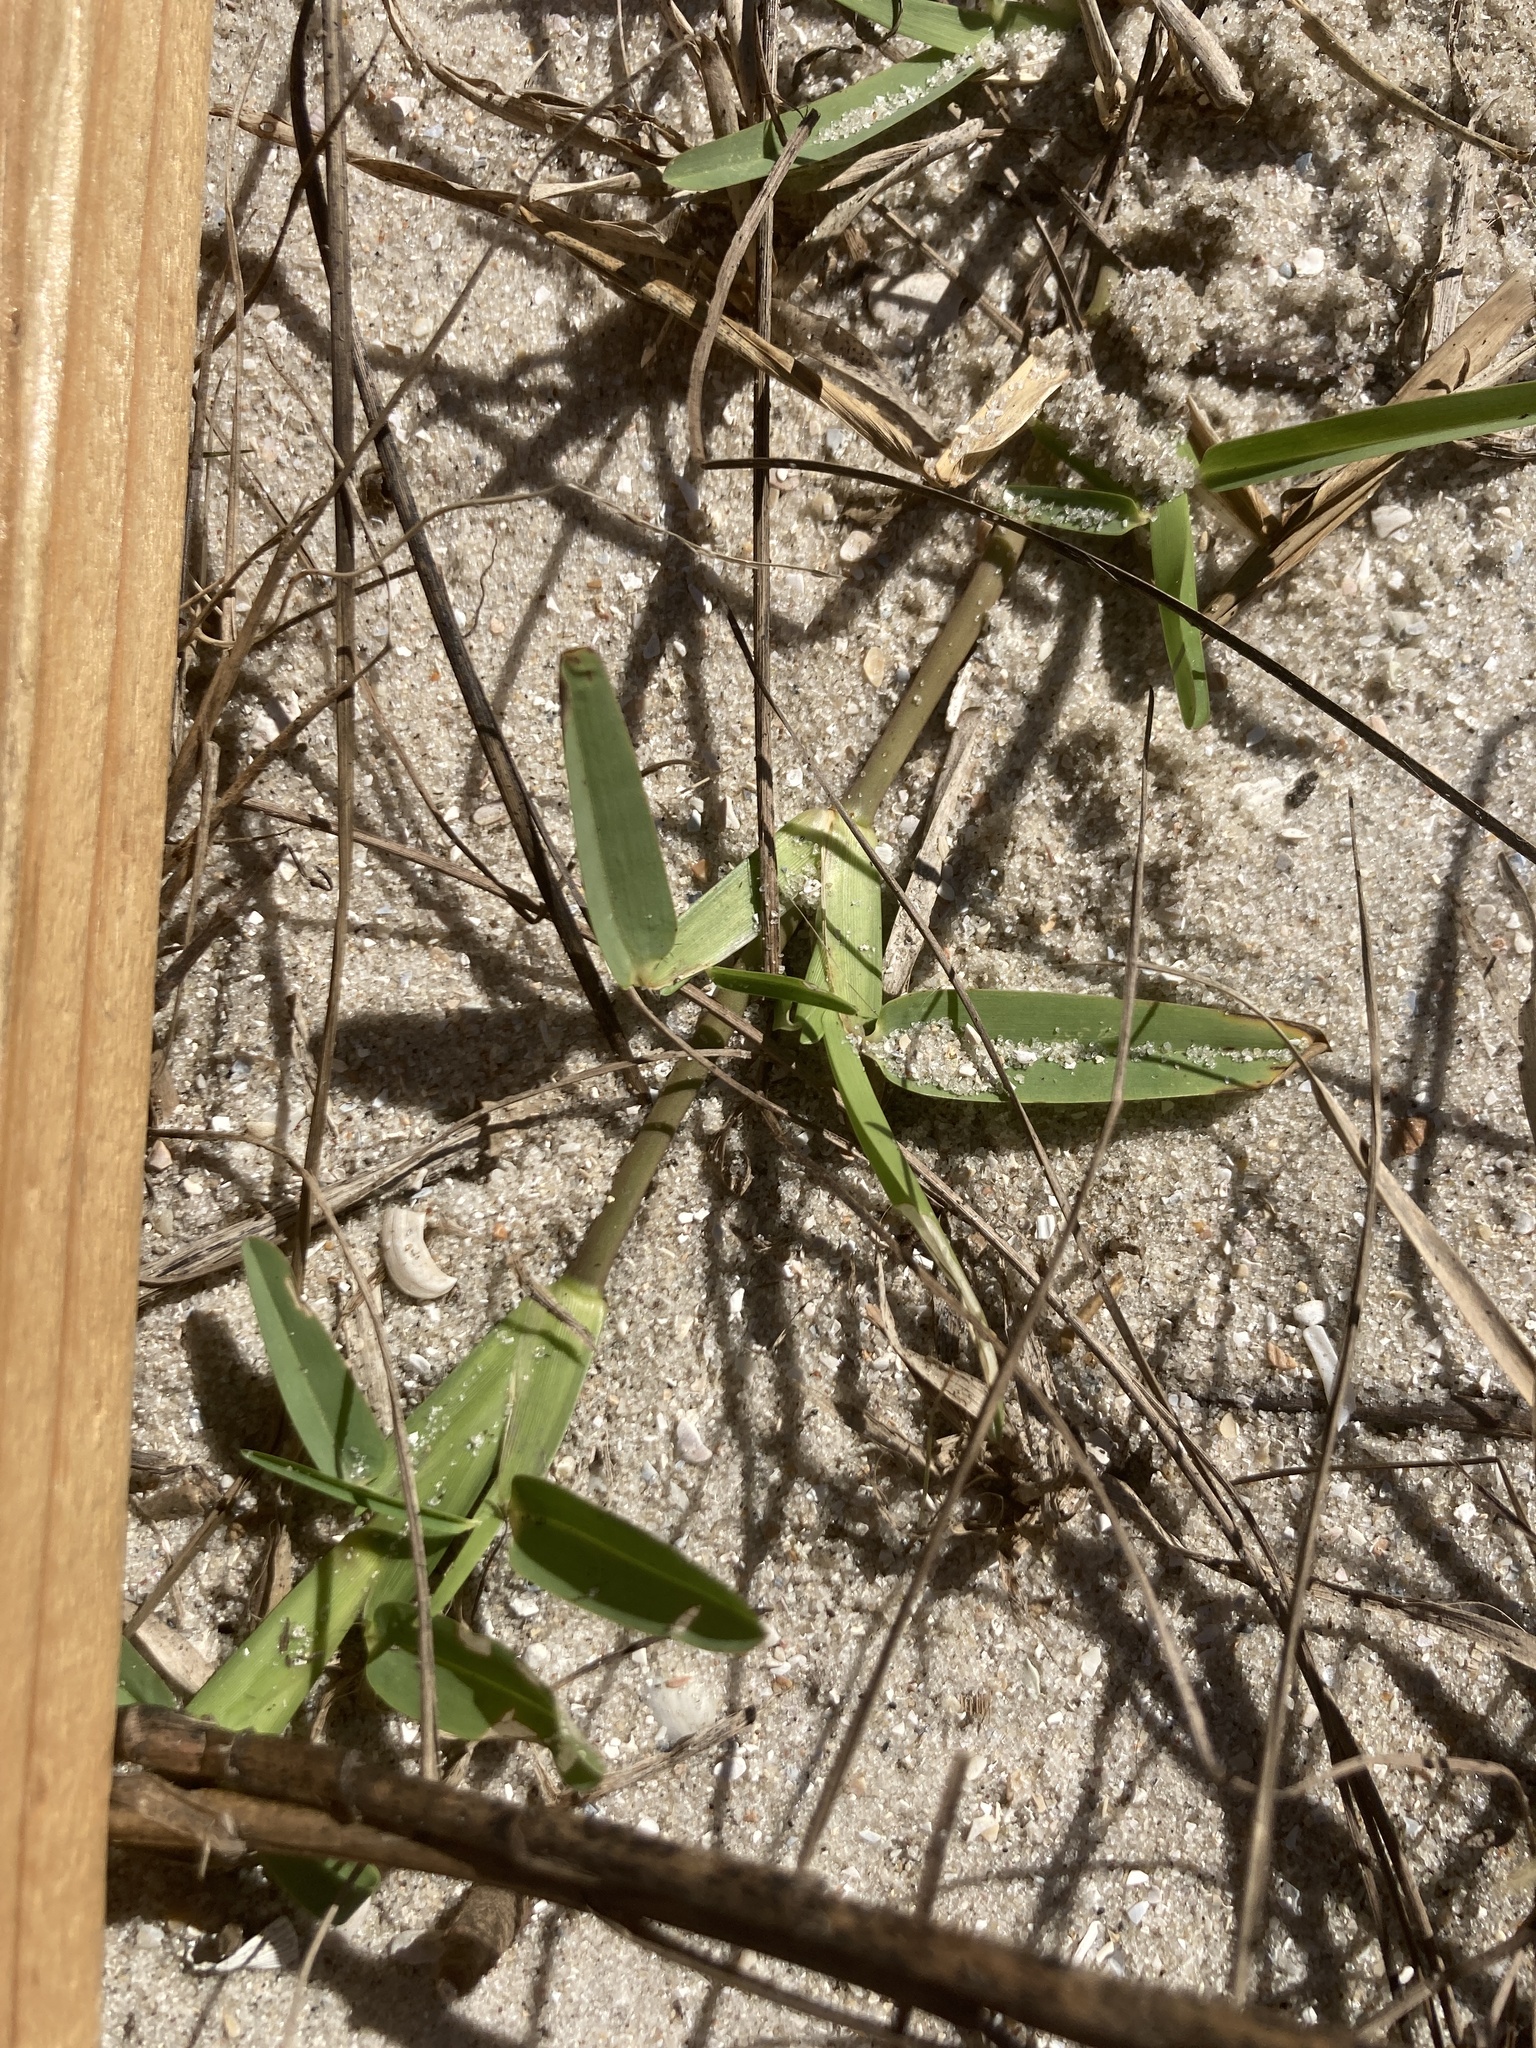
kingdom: Plantae
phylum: Tracheophyta
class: Liliopsida
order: Poales
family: Poaceae
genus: Stenotaphrum
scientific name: Stenotaphrum secundatum
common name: St. augustine grass
